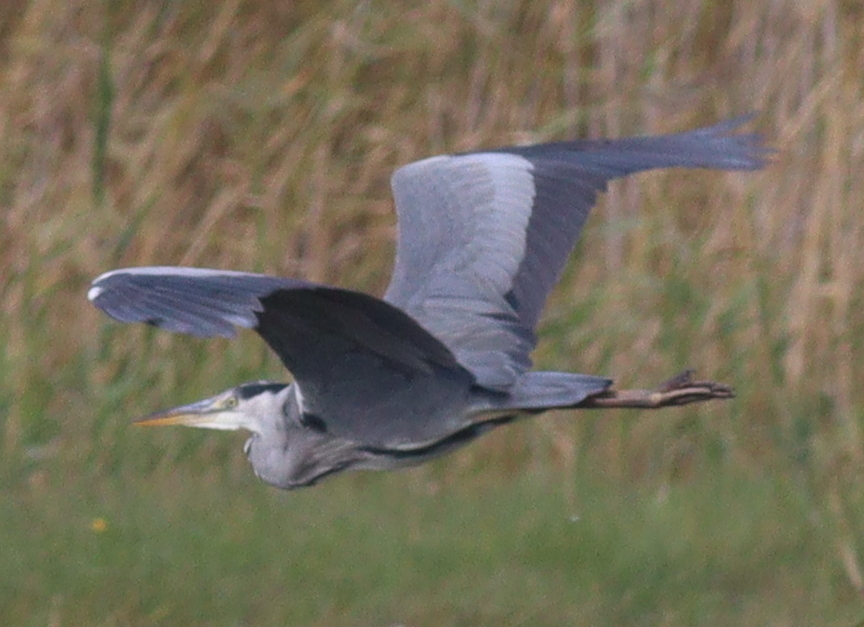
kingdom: Animalia
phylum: Chordata
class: Aves
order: Pelecaniformes
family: Ardeidae
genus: Ardea
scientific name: Ardea cinerea
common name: Grey heron
